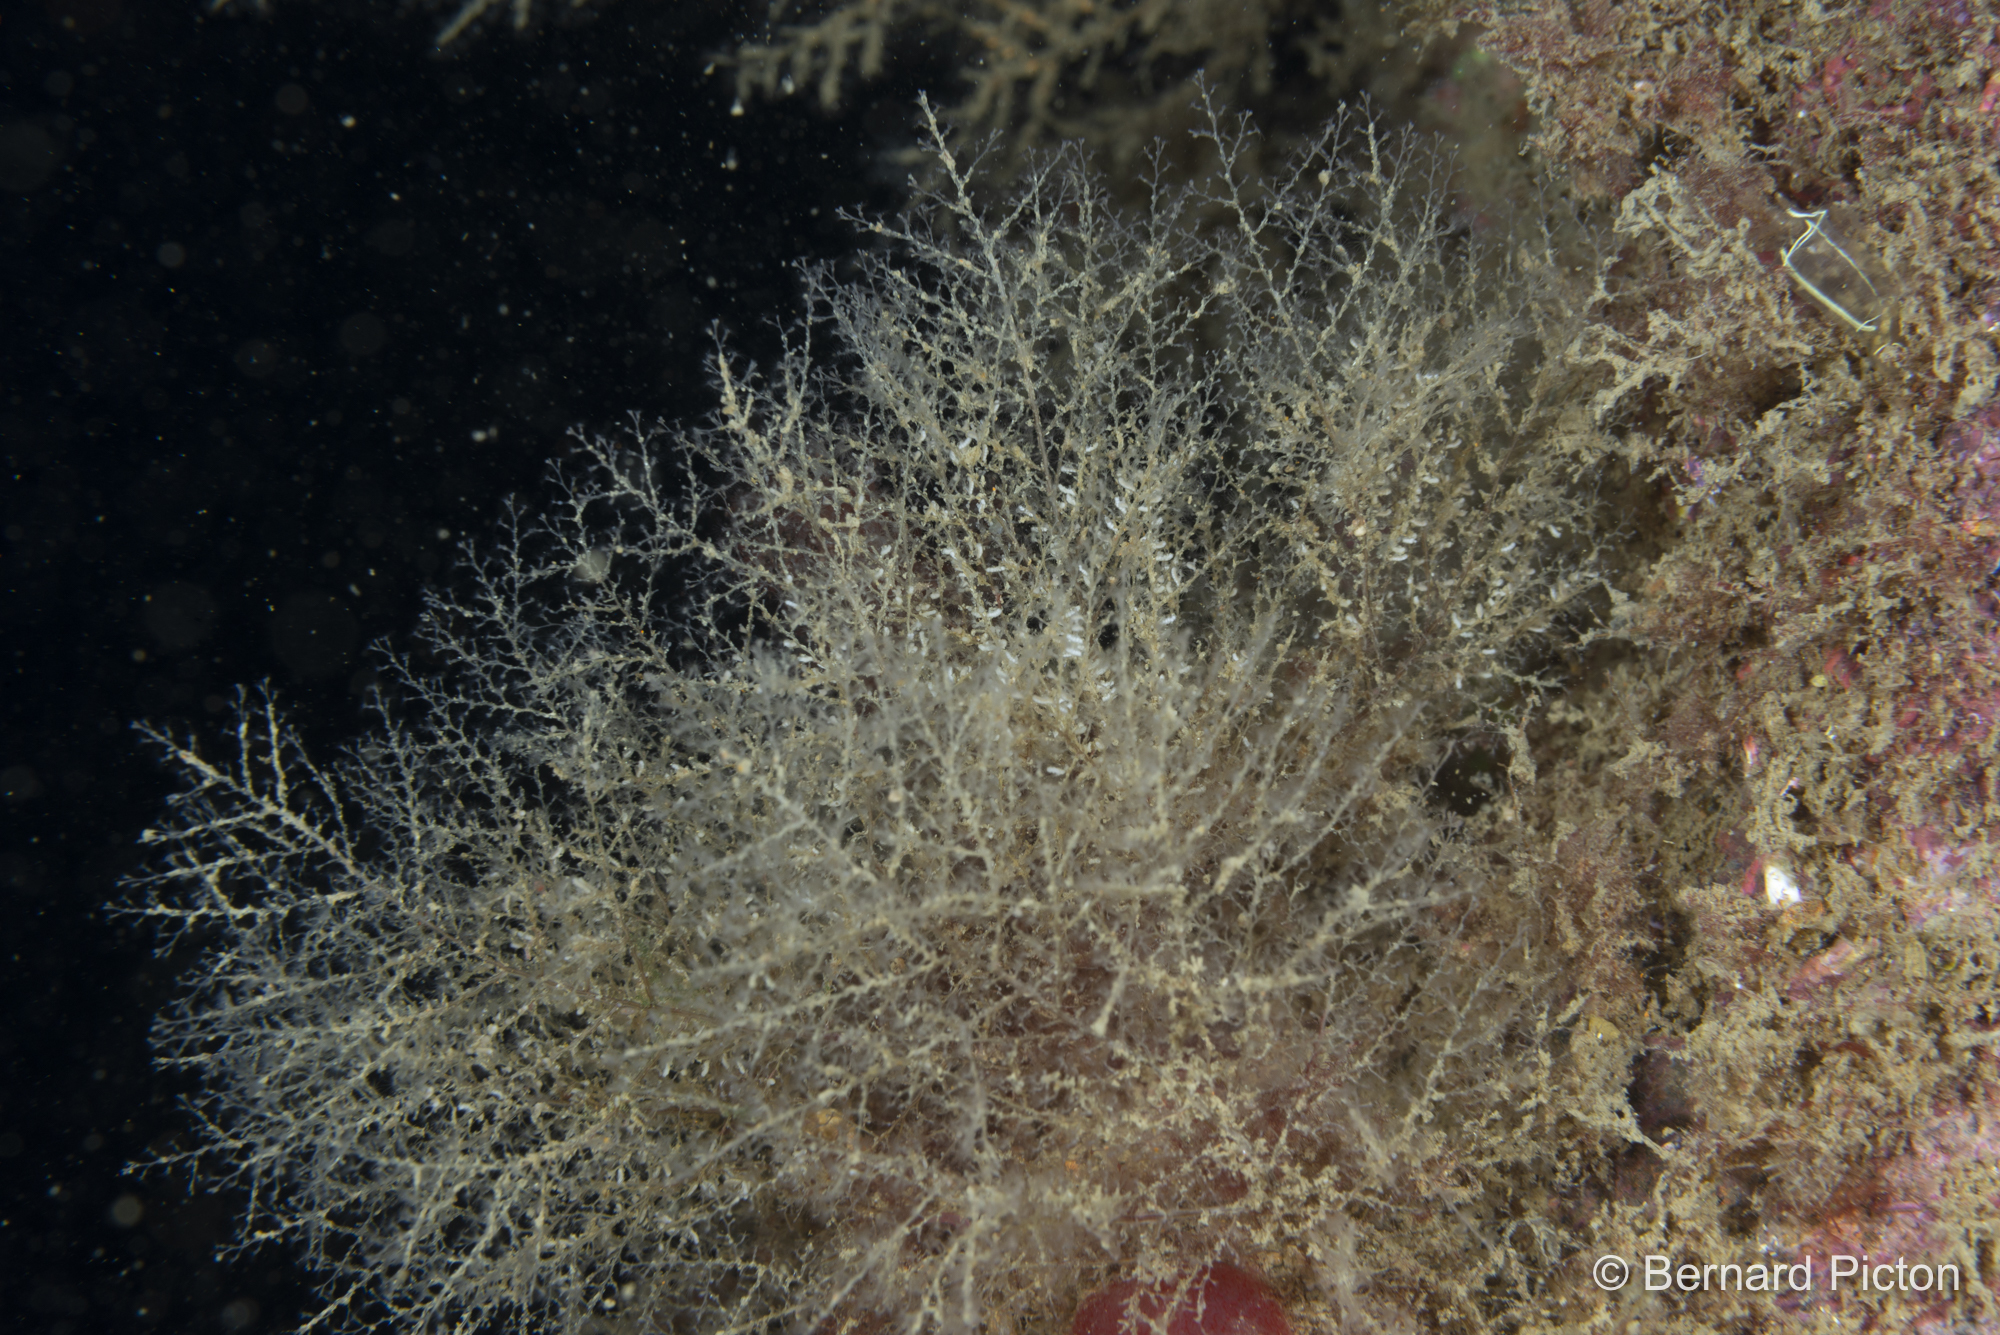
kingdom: Animalia
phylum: Cnidaria
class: Hydrozoa
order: Leptothecata
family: Haleciidae
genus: Halecium
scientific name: Halecium beanii
